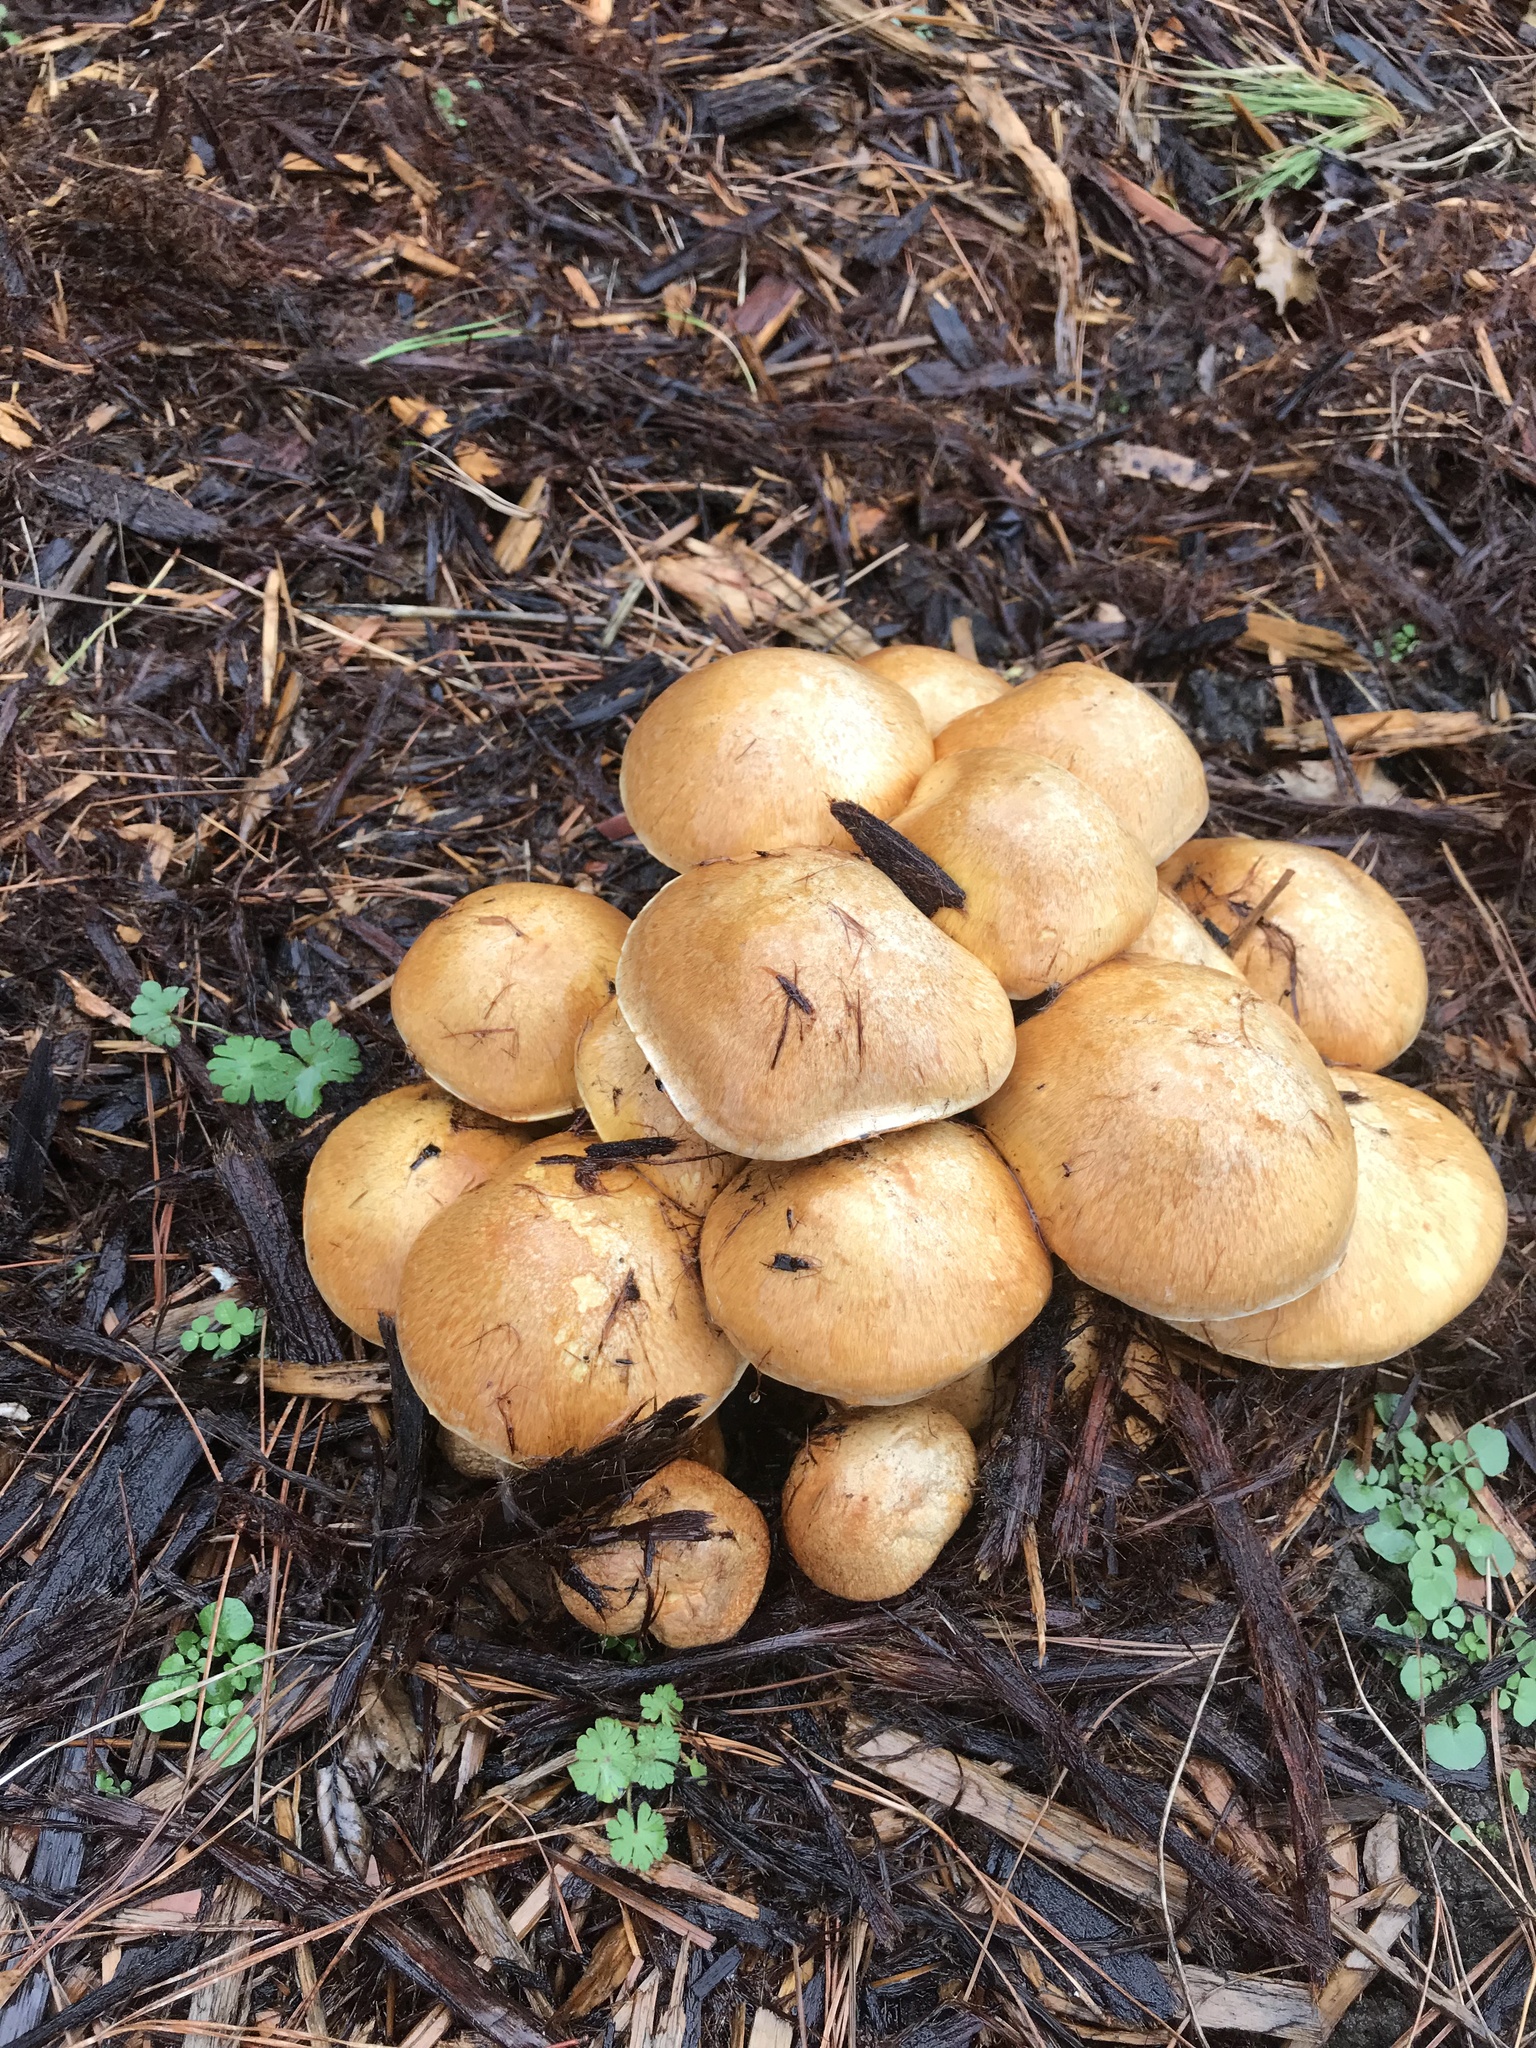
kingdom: Fungi
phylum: Basidiomycota
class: Agaricomycetes
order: Agaricales
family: Hymenogastraceae
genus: Gymnopilus
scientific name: Gymnopilus ventricosus
